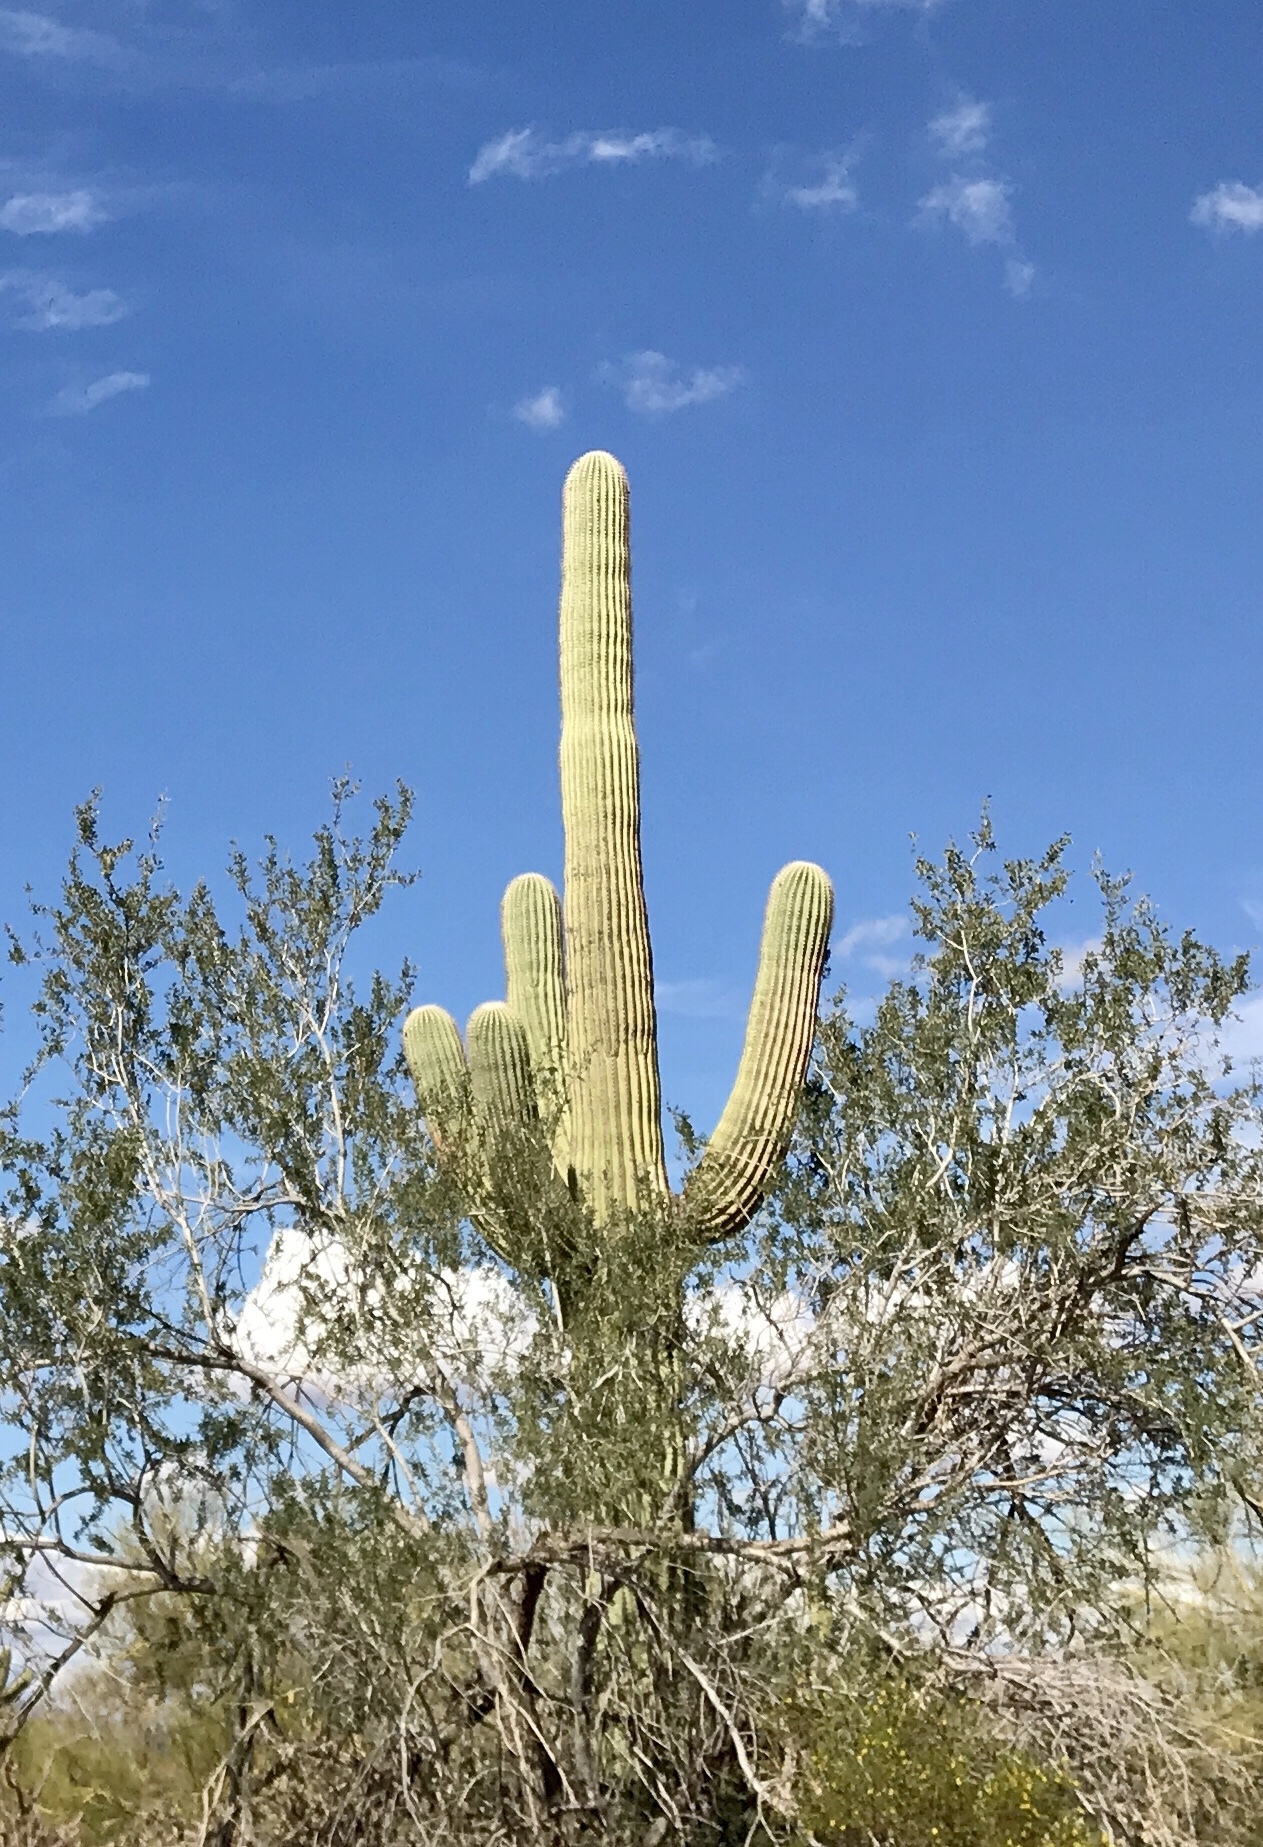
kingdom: Plantae
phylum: Tracheophyta
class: Magnoliopsida
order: Caryophyllales
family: Cactaceae
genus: Carnegiea
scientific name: Carnegiea gigantea
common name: Saguaro
